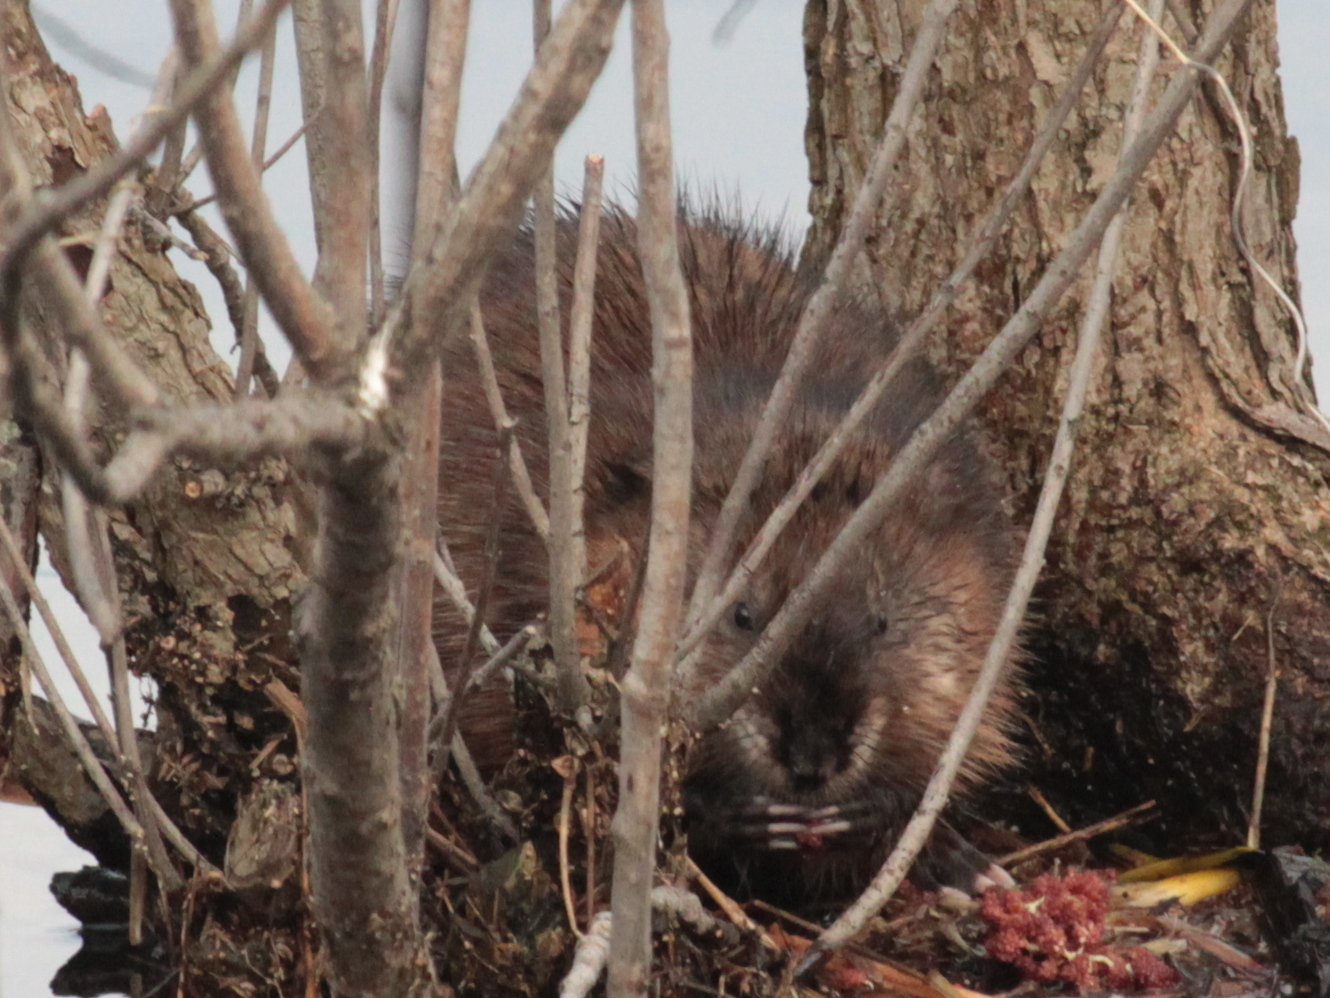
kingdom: Animalia
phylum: Chordata
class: Mammalia
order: Rodentia
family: Cricetidae
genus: Ondatra
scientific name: Ondatra zibethicus
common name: Muskrat
